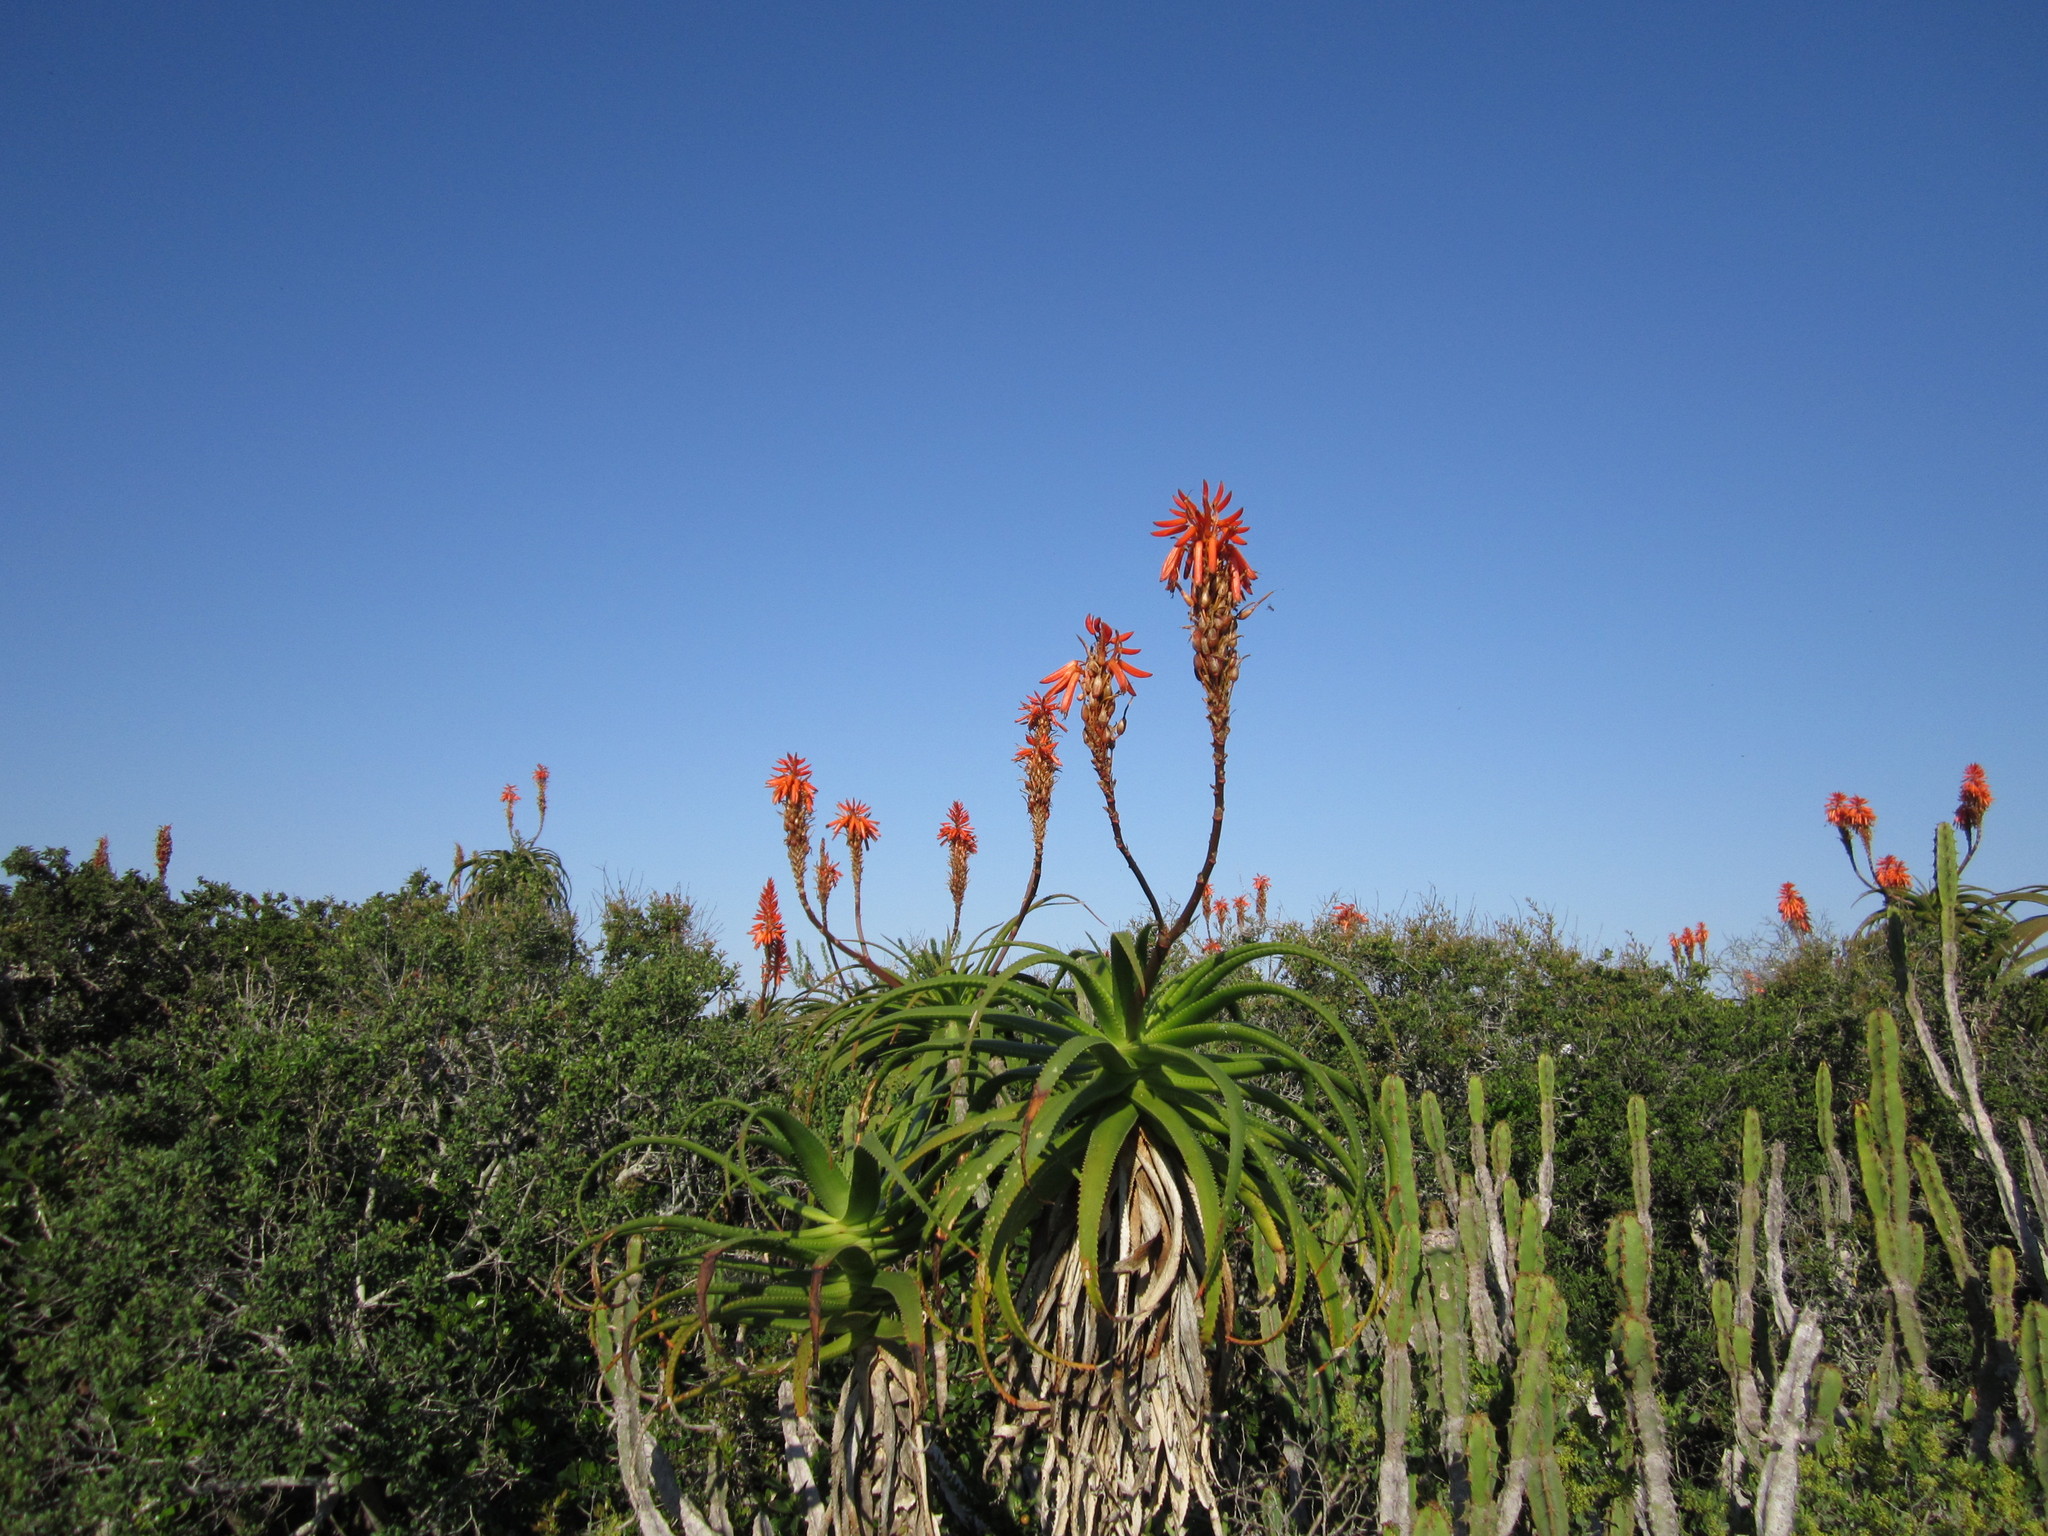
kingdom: Plantae
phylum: Tracheophyta
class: Liliopsida
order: Asparagales
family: Asphodelaceae
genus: Aloe
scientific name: Aloe pluridens
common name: French aloe
